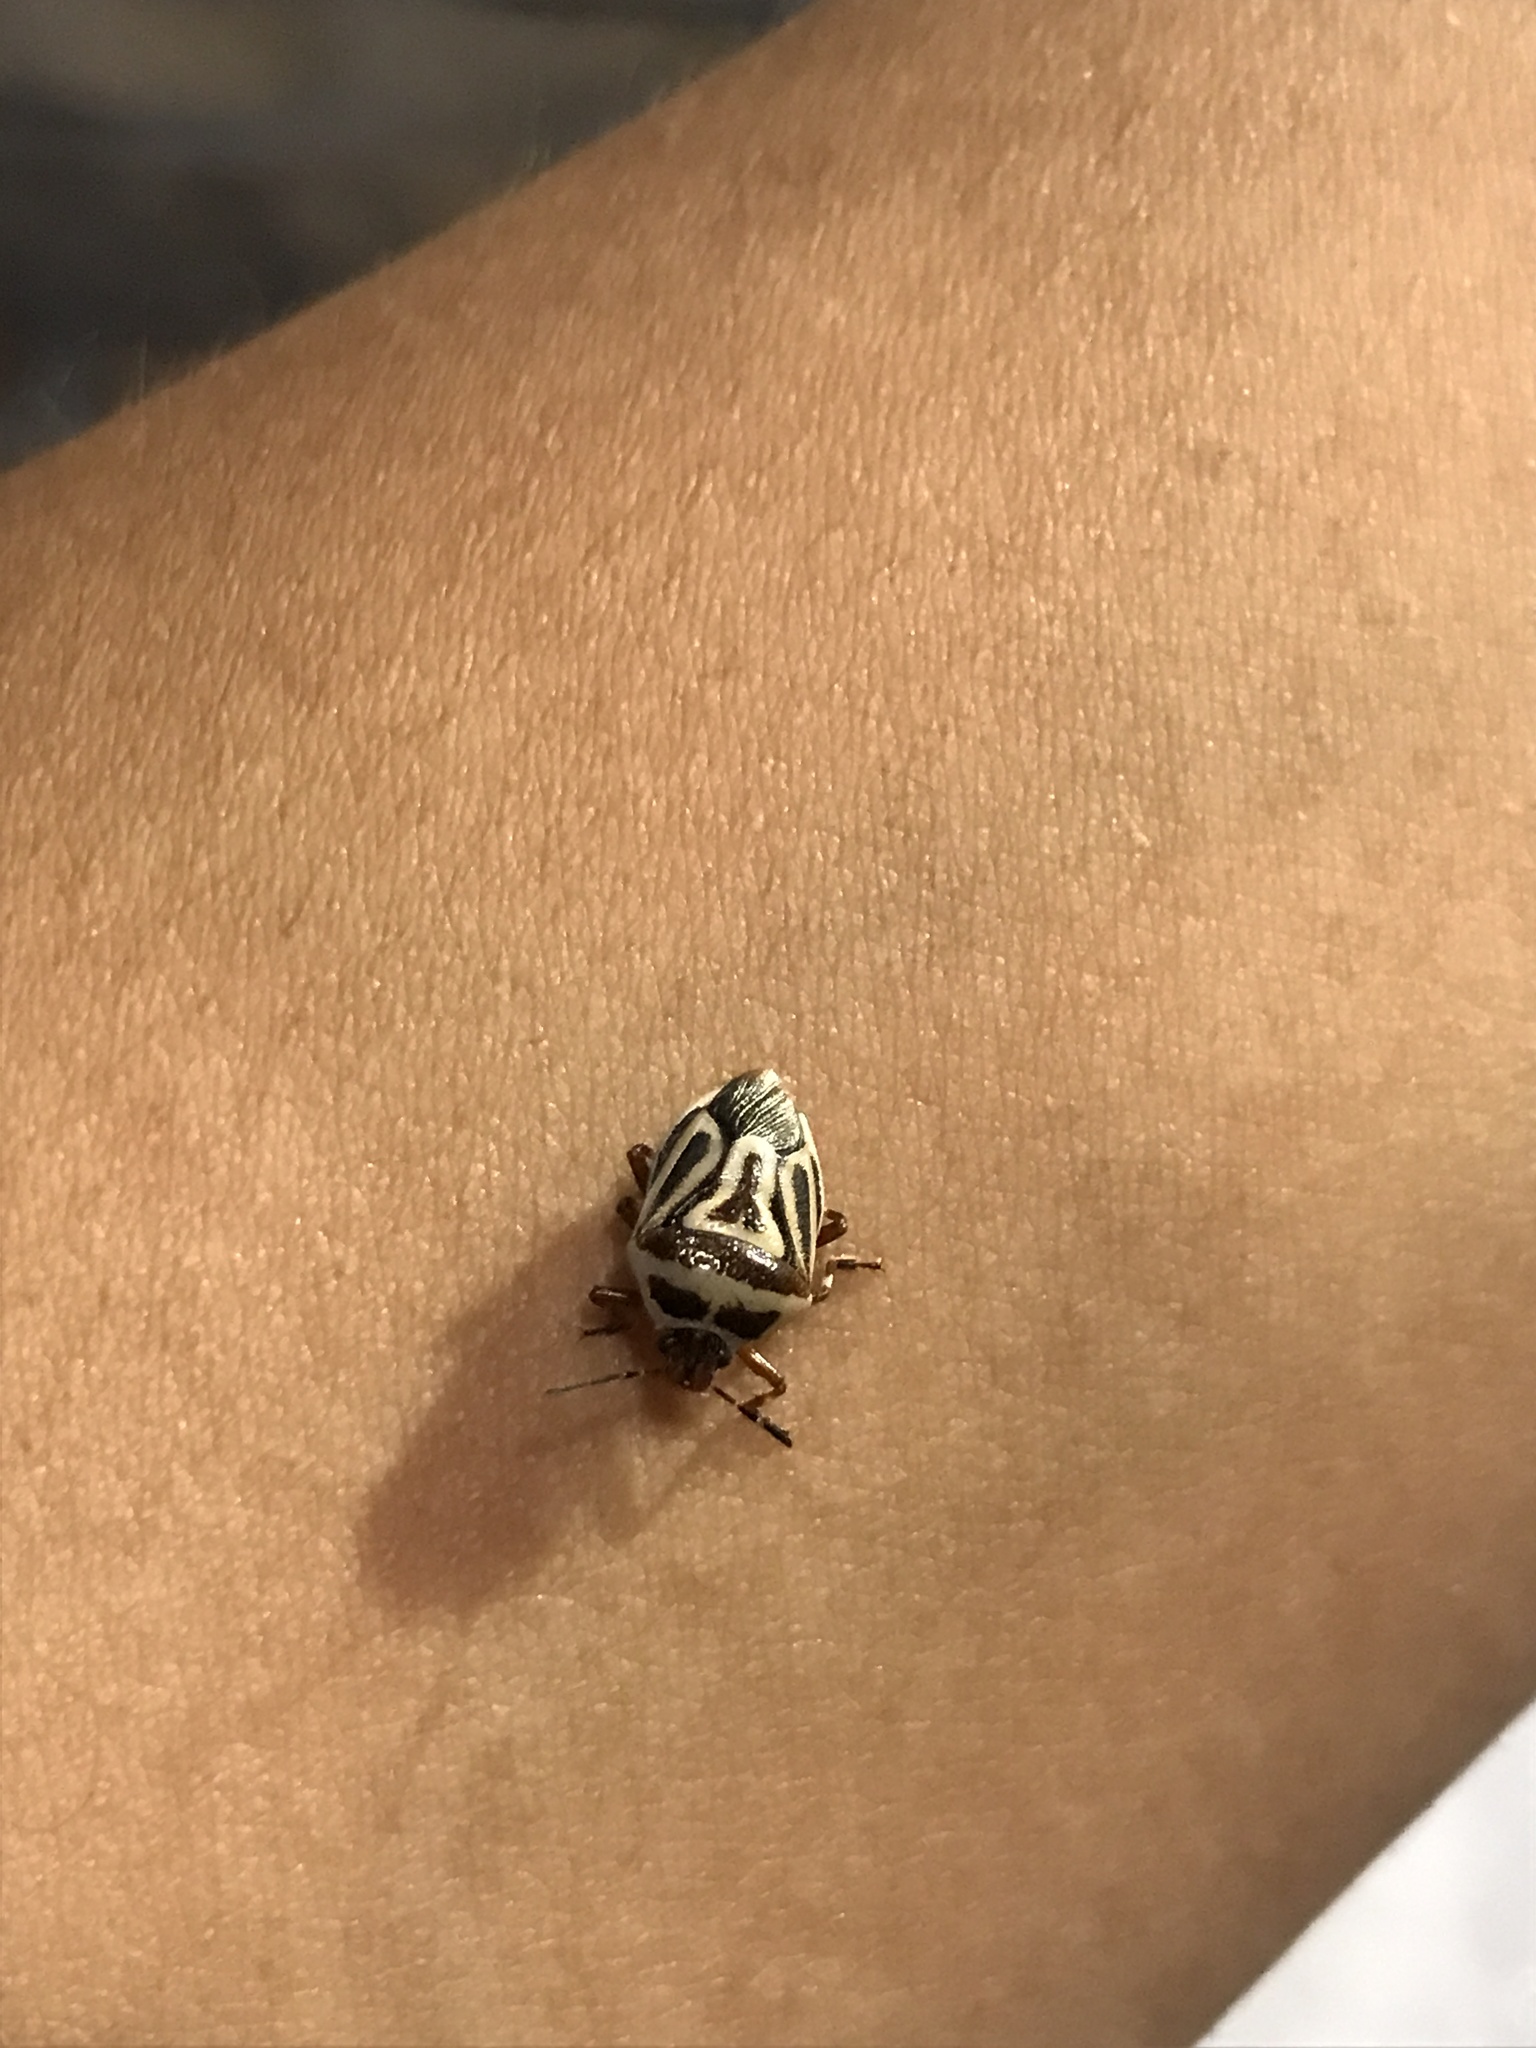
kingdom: Animalia
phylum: Arthropoda
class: Insecta
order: Hemiptera
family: Pentatomidae
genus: Perillus
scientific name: Perillus bioculatus
